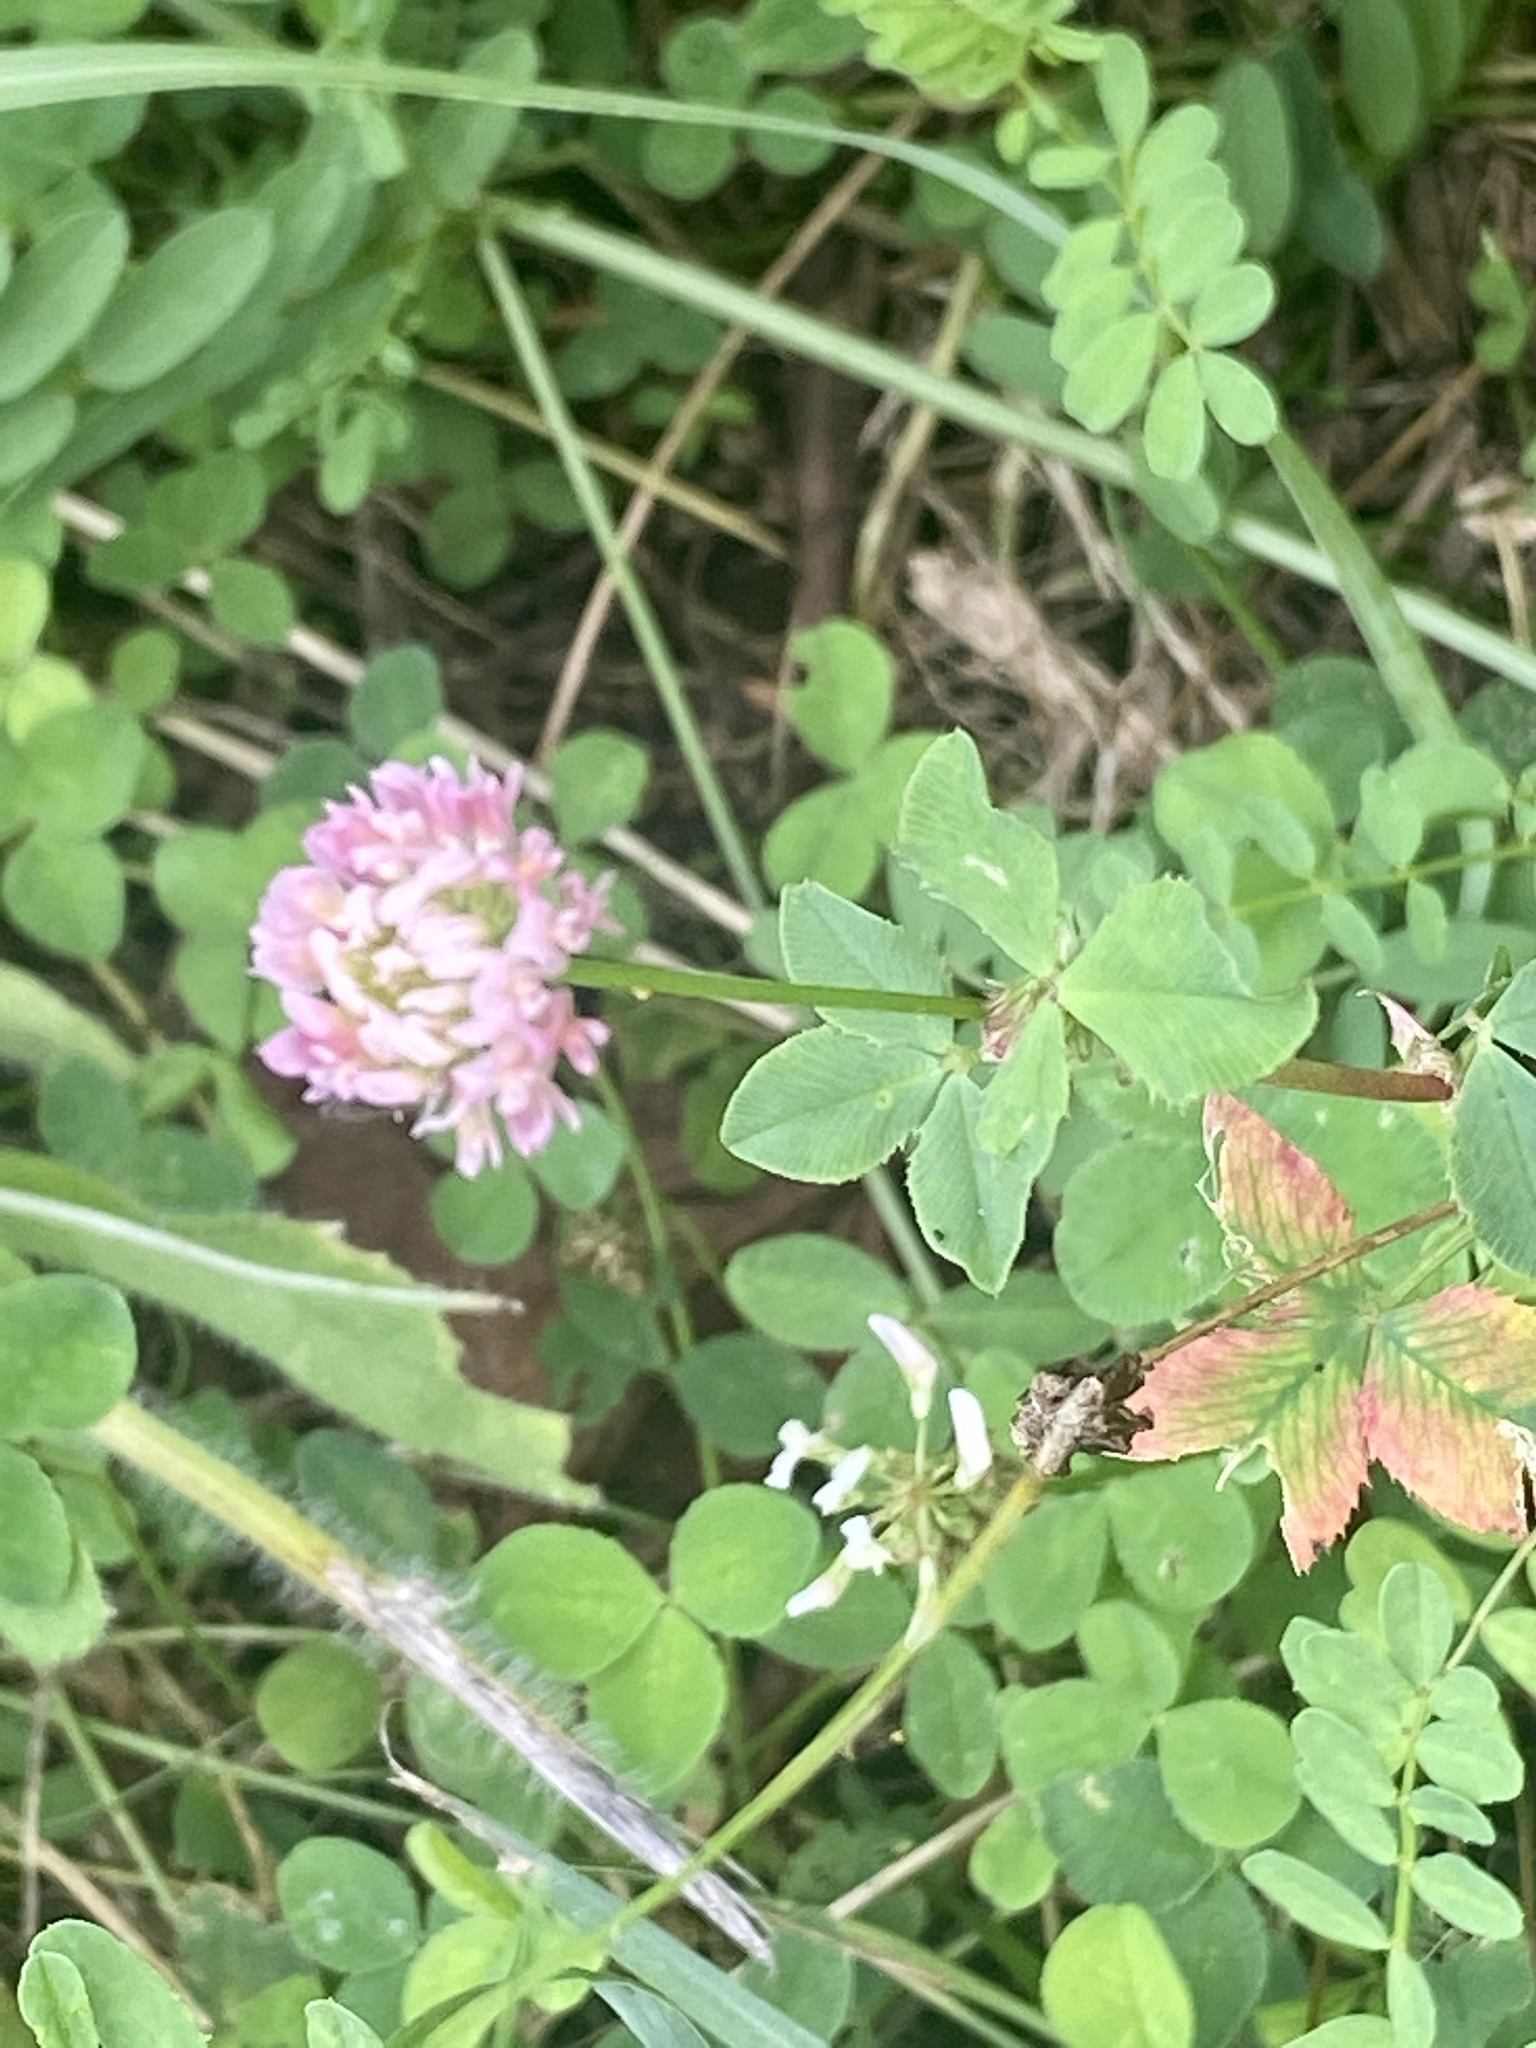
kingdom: Plantae
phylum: Tracheophyta
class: Magnoliopsida
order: Fabales
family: Fabaceae
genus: Trifolium
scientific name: Trifolium hybridum
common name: Alsike clover
